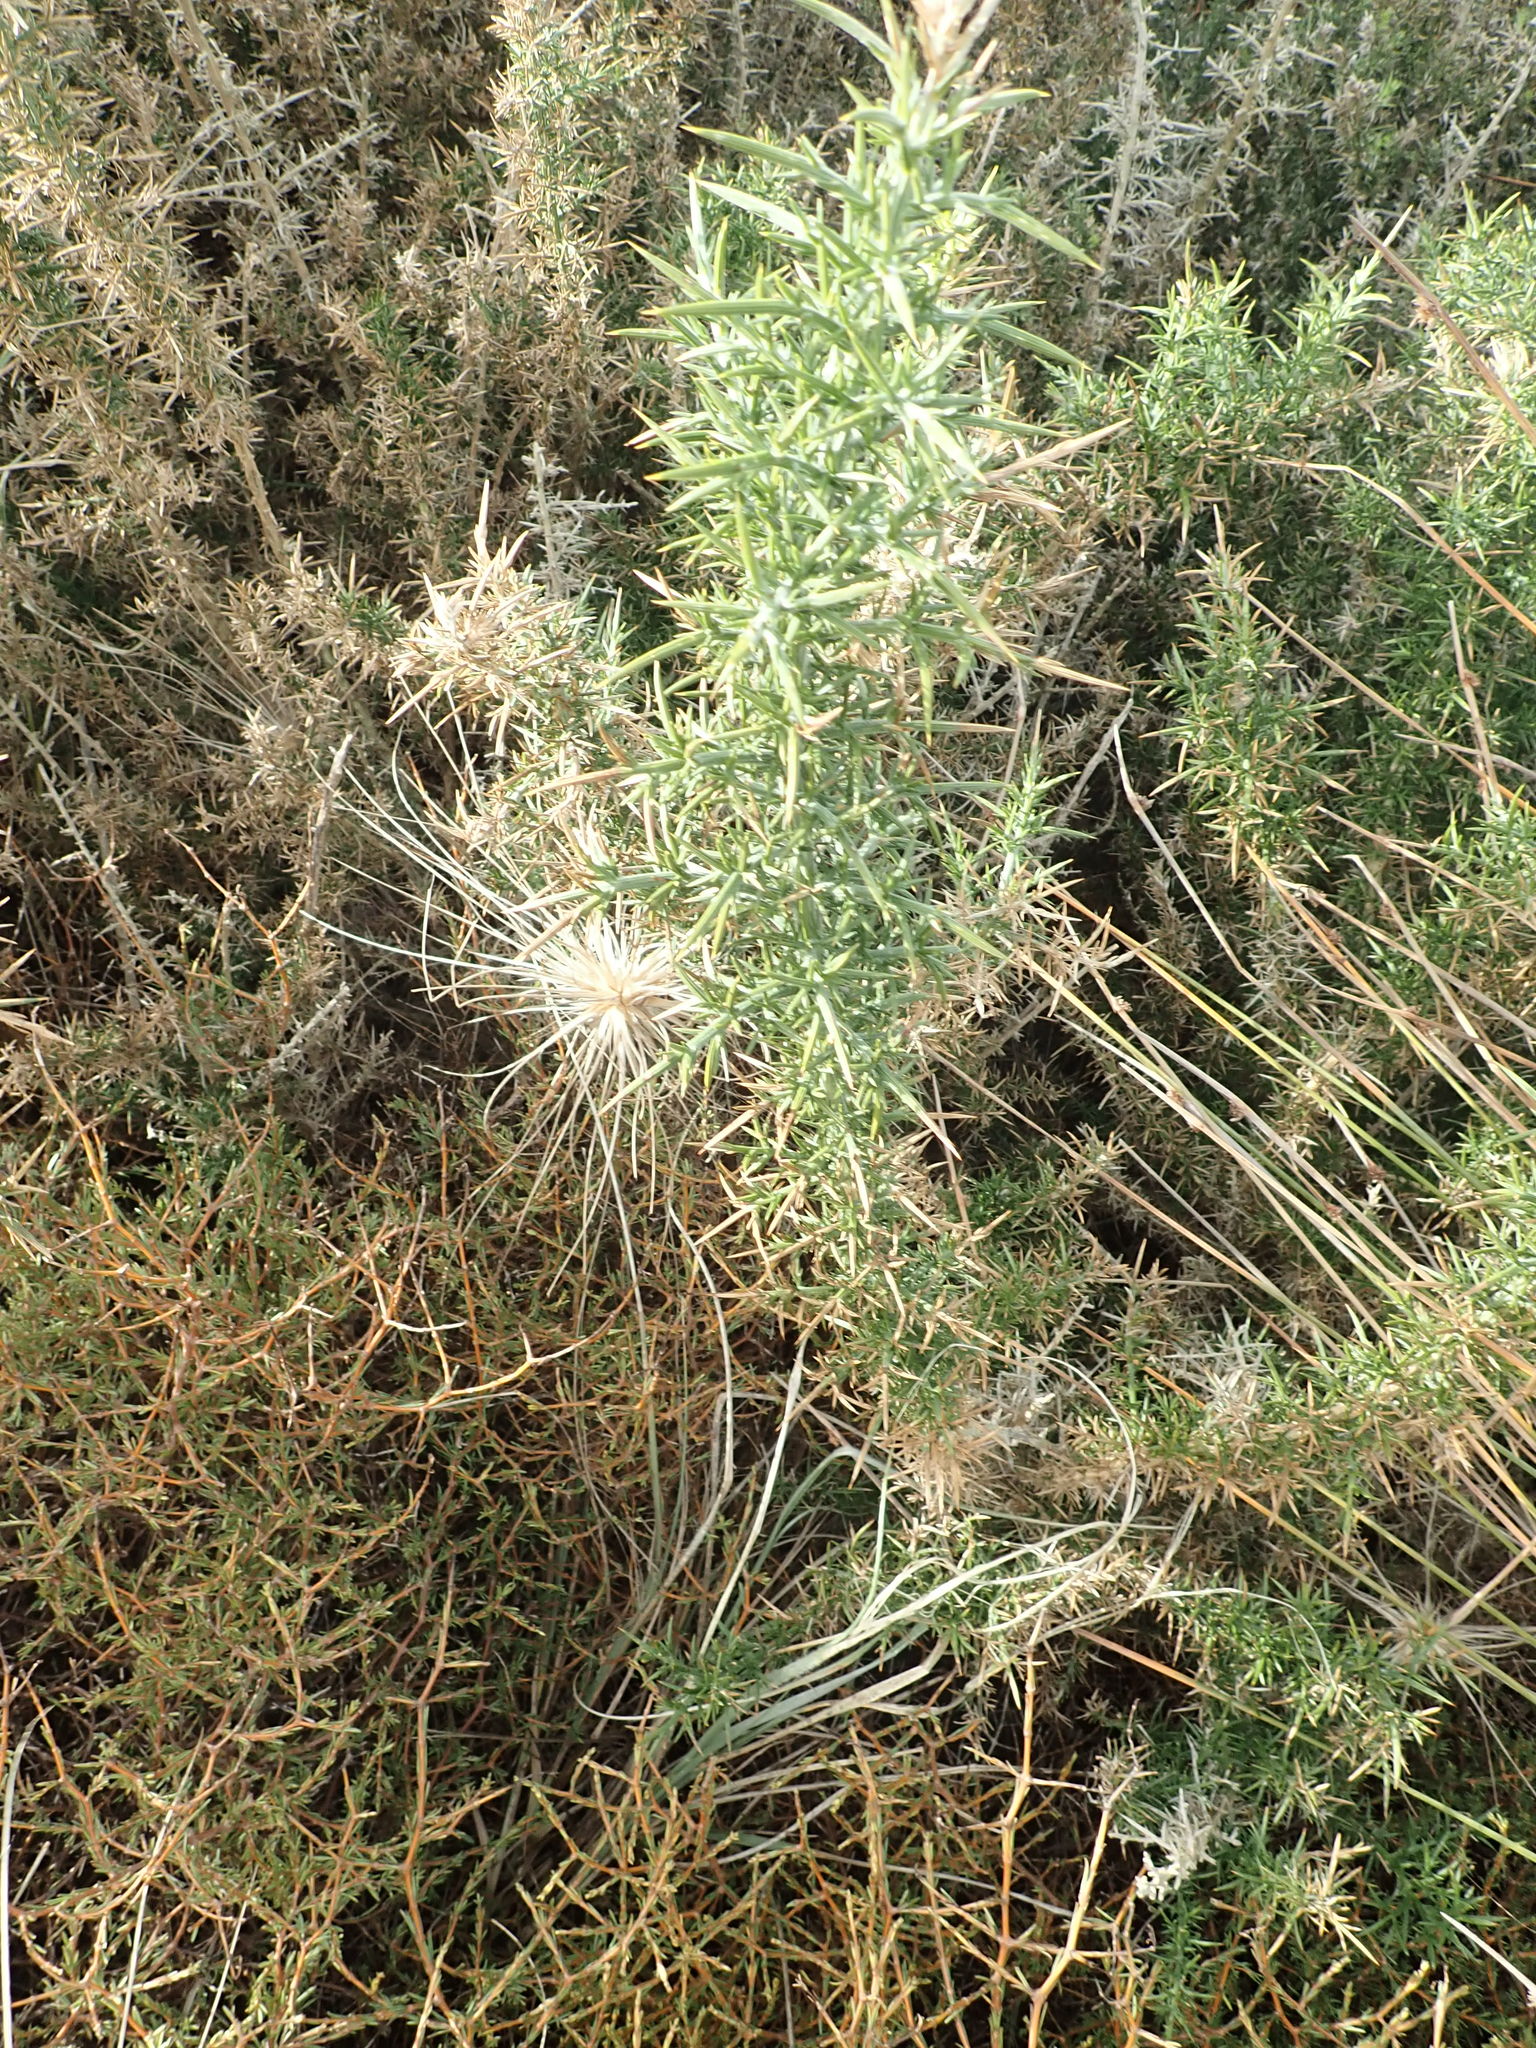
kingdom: Plantae
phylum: Tracheophyta
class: Magnoliopsida
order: Fabales
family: Fabaceae
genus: Ulex
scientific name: Ulex europaeus
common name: Common gorse
